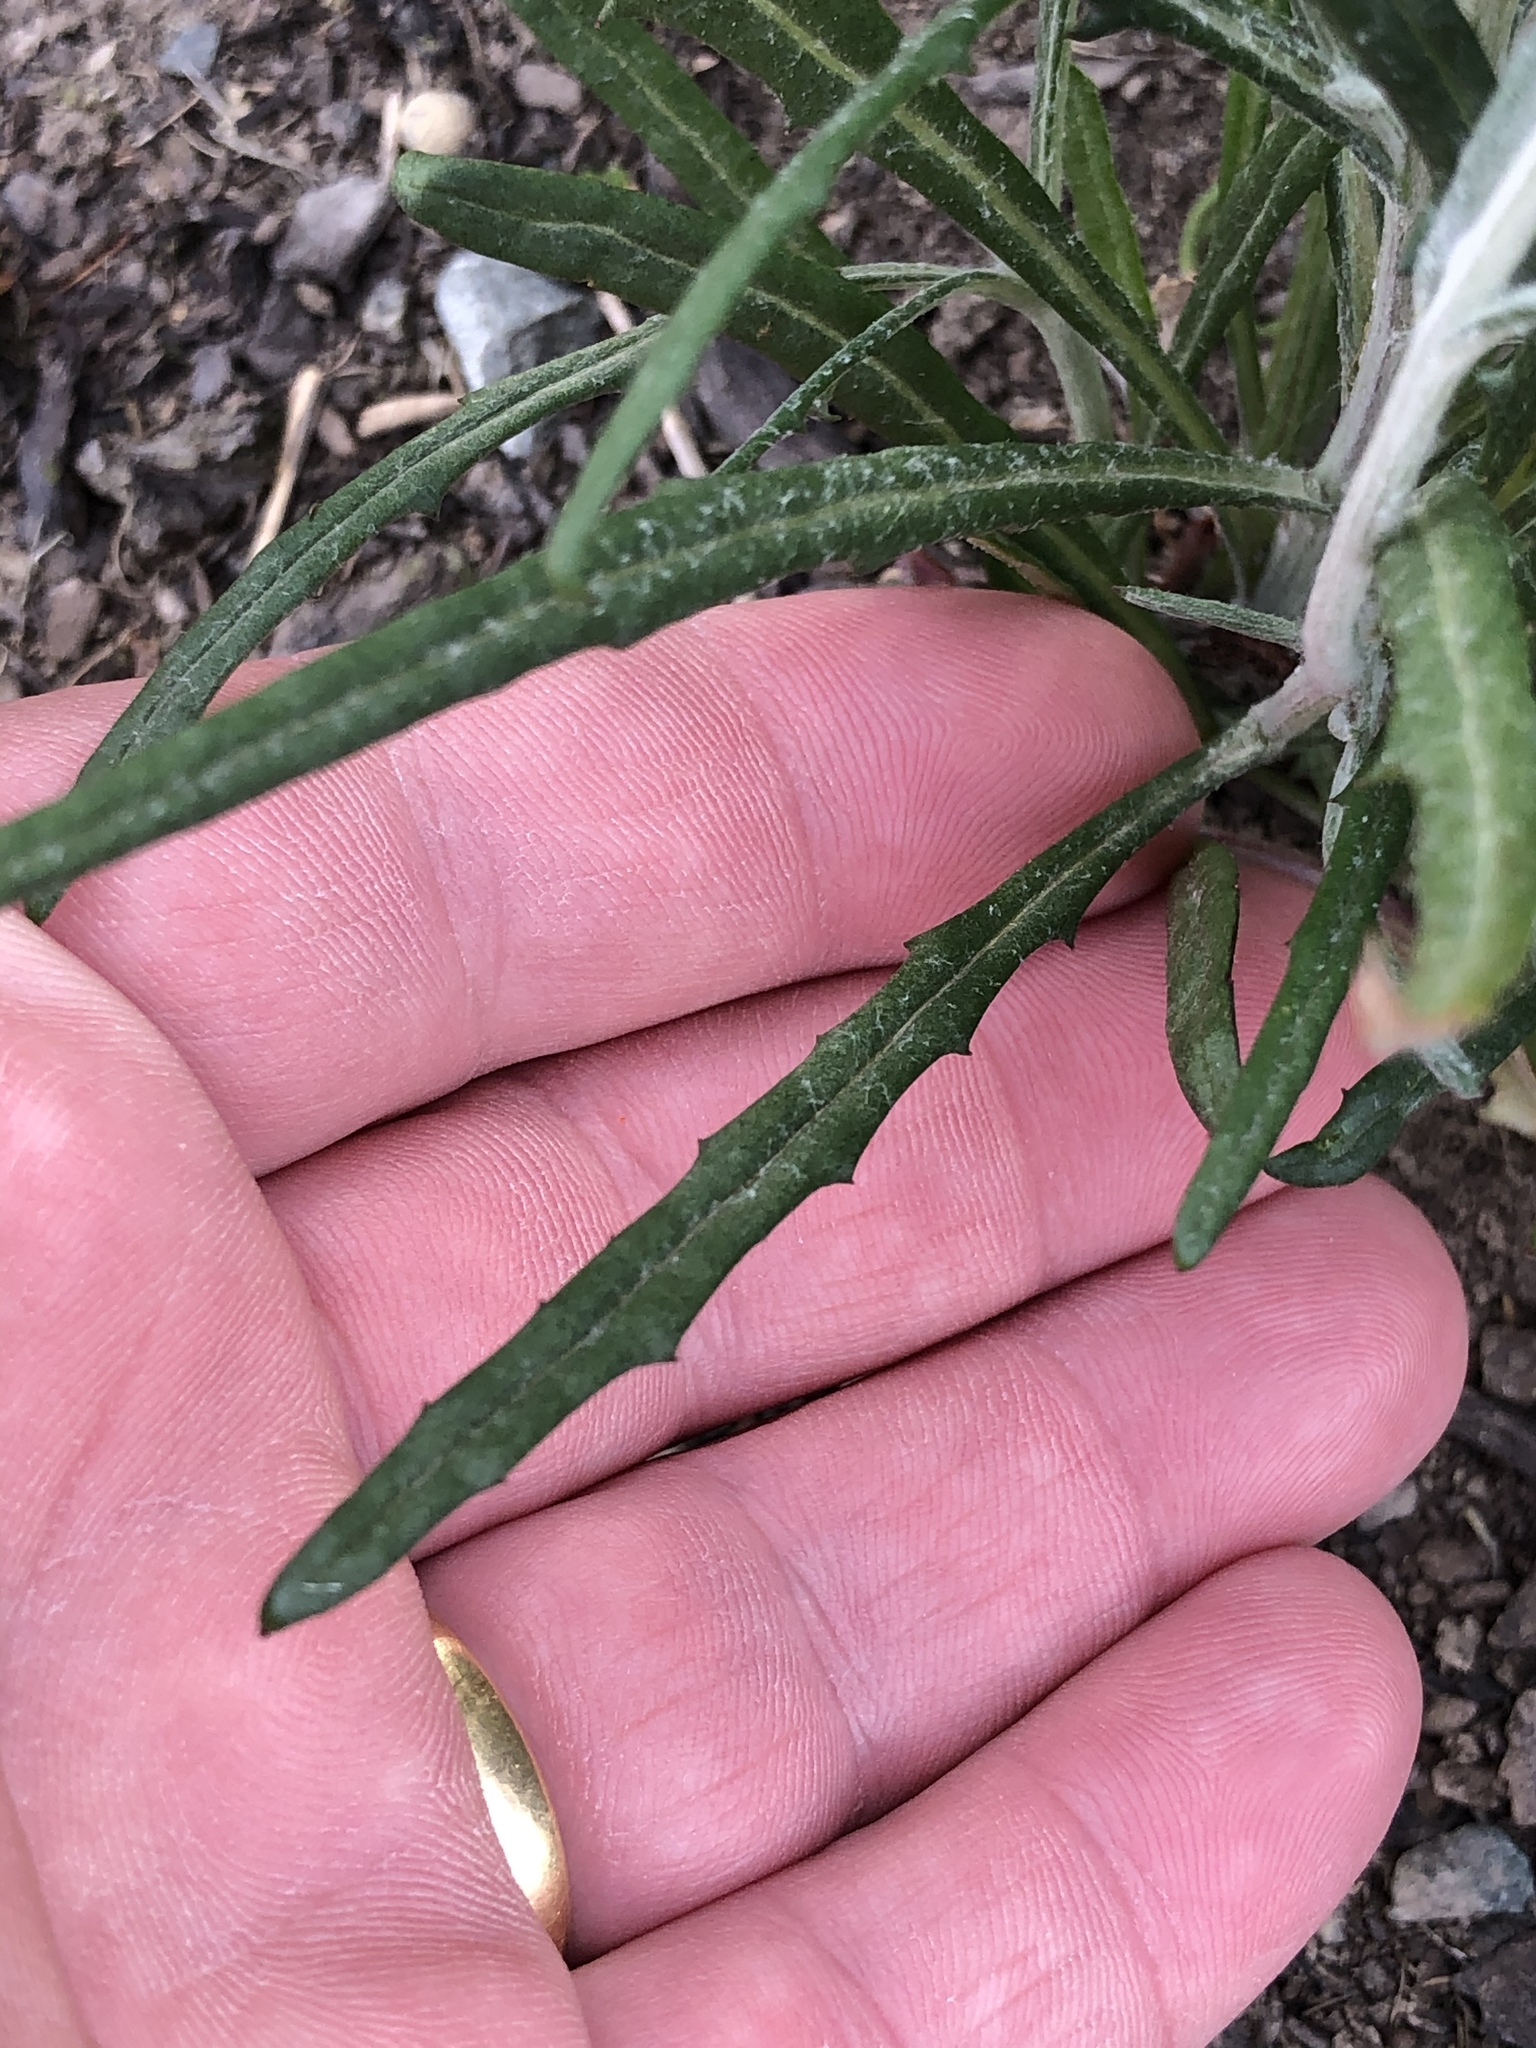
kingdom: Plantae
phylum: Tracheophyta
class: Magnoliopsida
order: Asterales
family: Asteraceae
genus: Senecio
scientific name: Senecio quadridentatus
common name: Cotton fireweed
